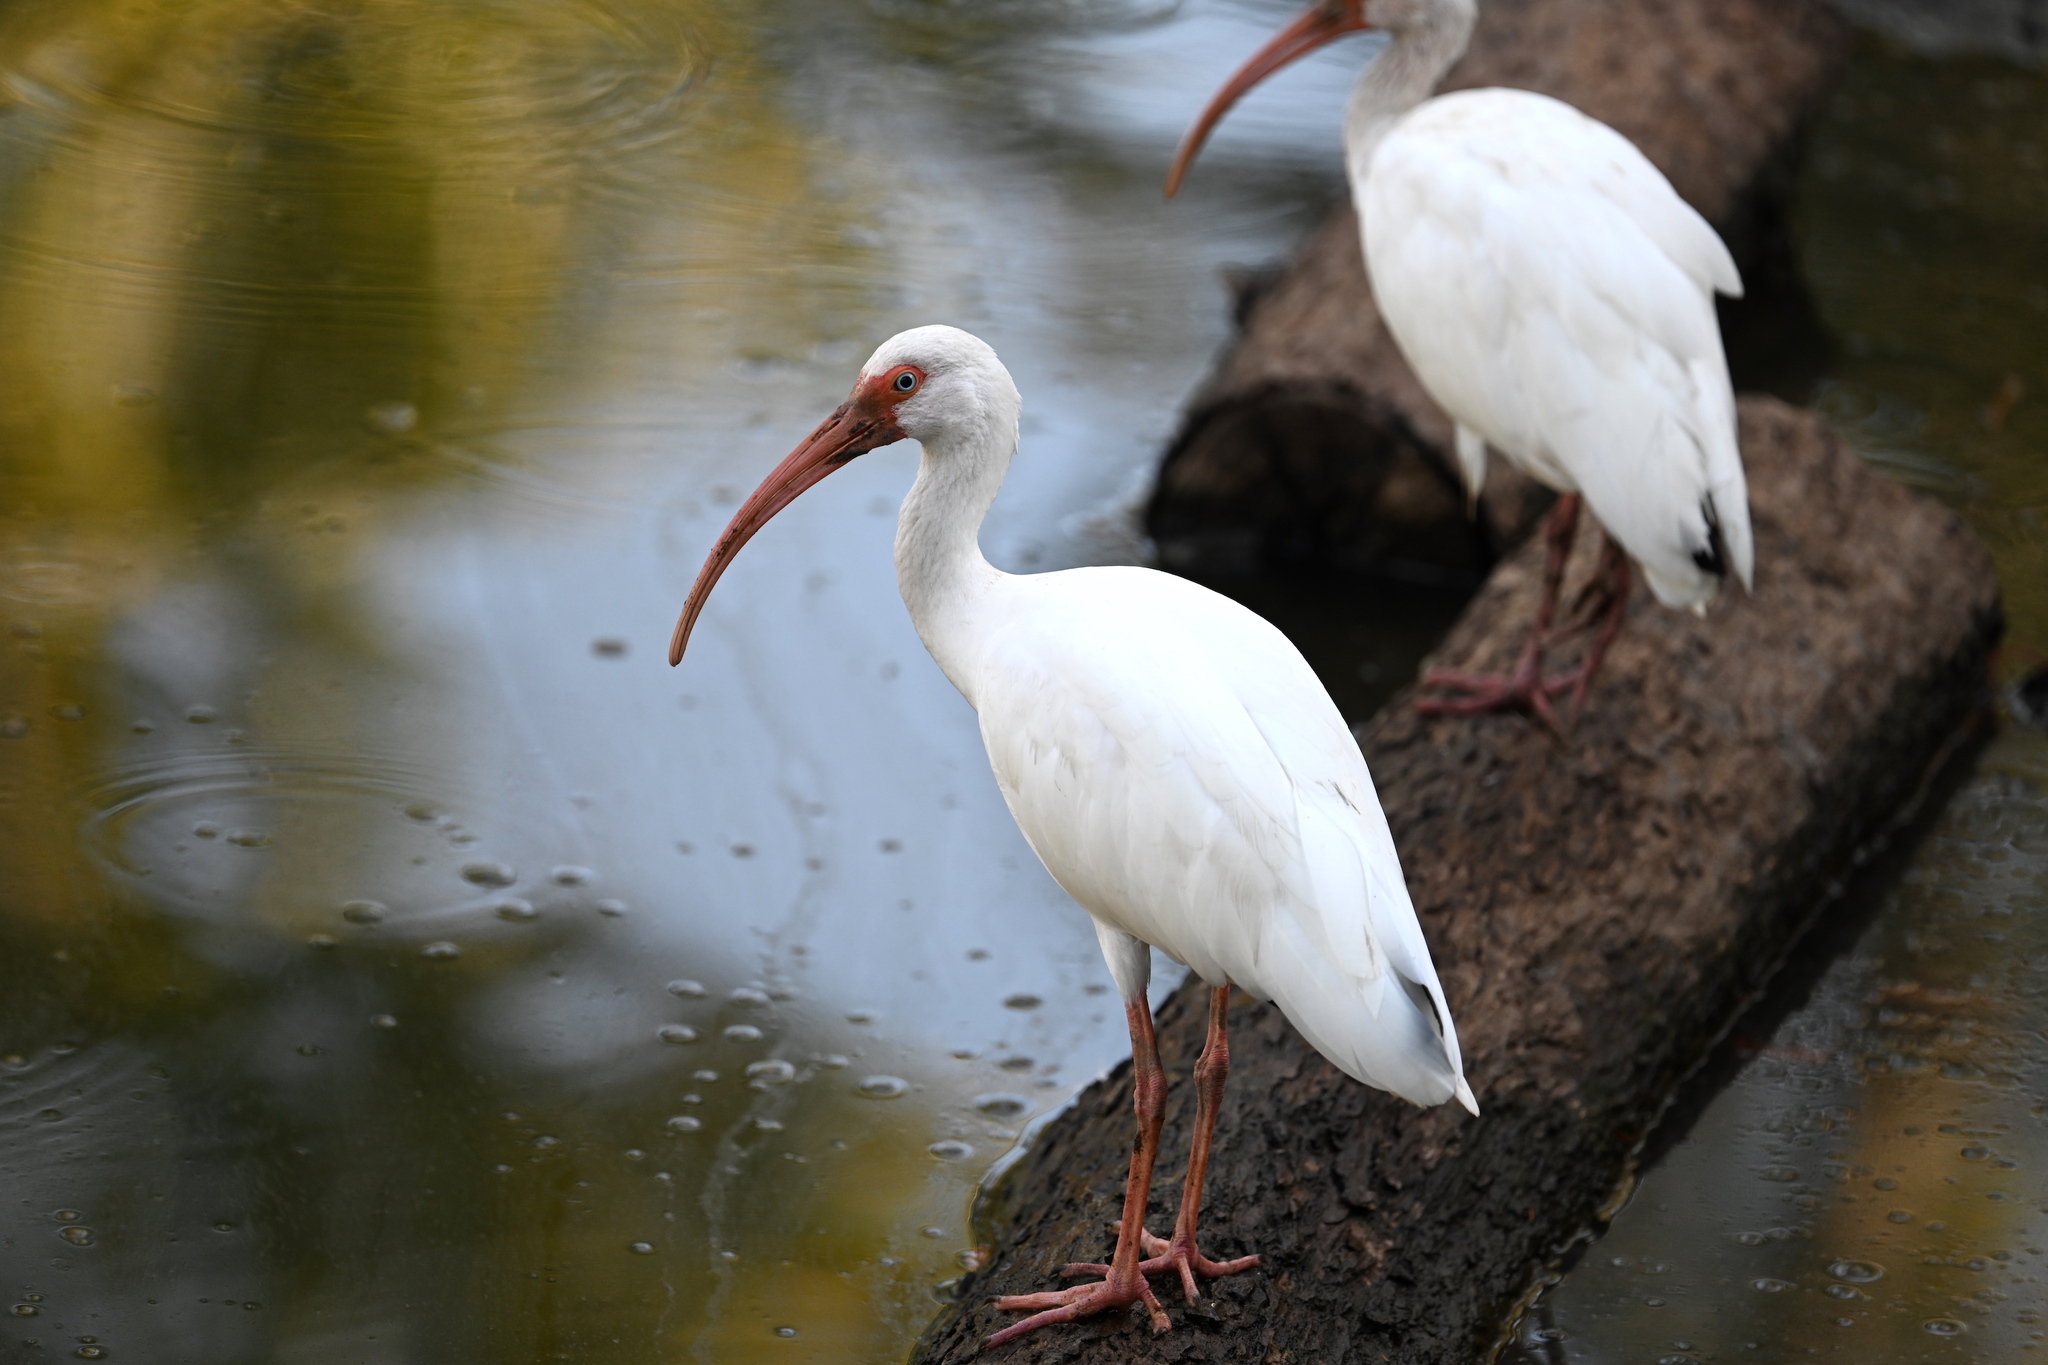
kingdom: Animalia
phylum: Chordata
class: Aves
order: Pelecaniformes
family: Threskiornithidae
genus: Eudocimus
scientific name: Eudocimus albus
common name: White ibis
